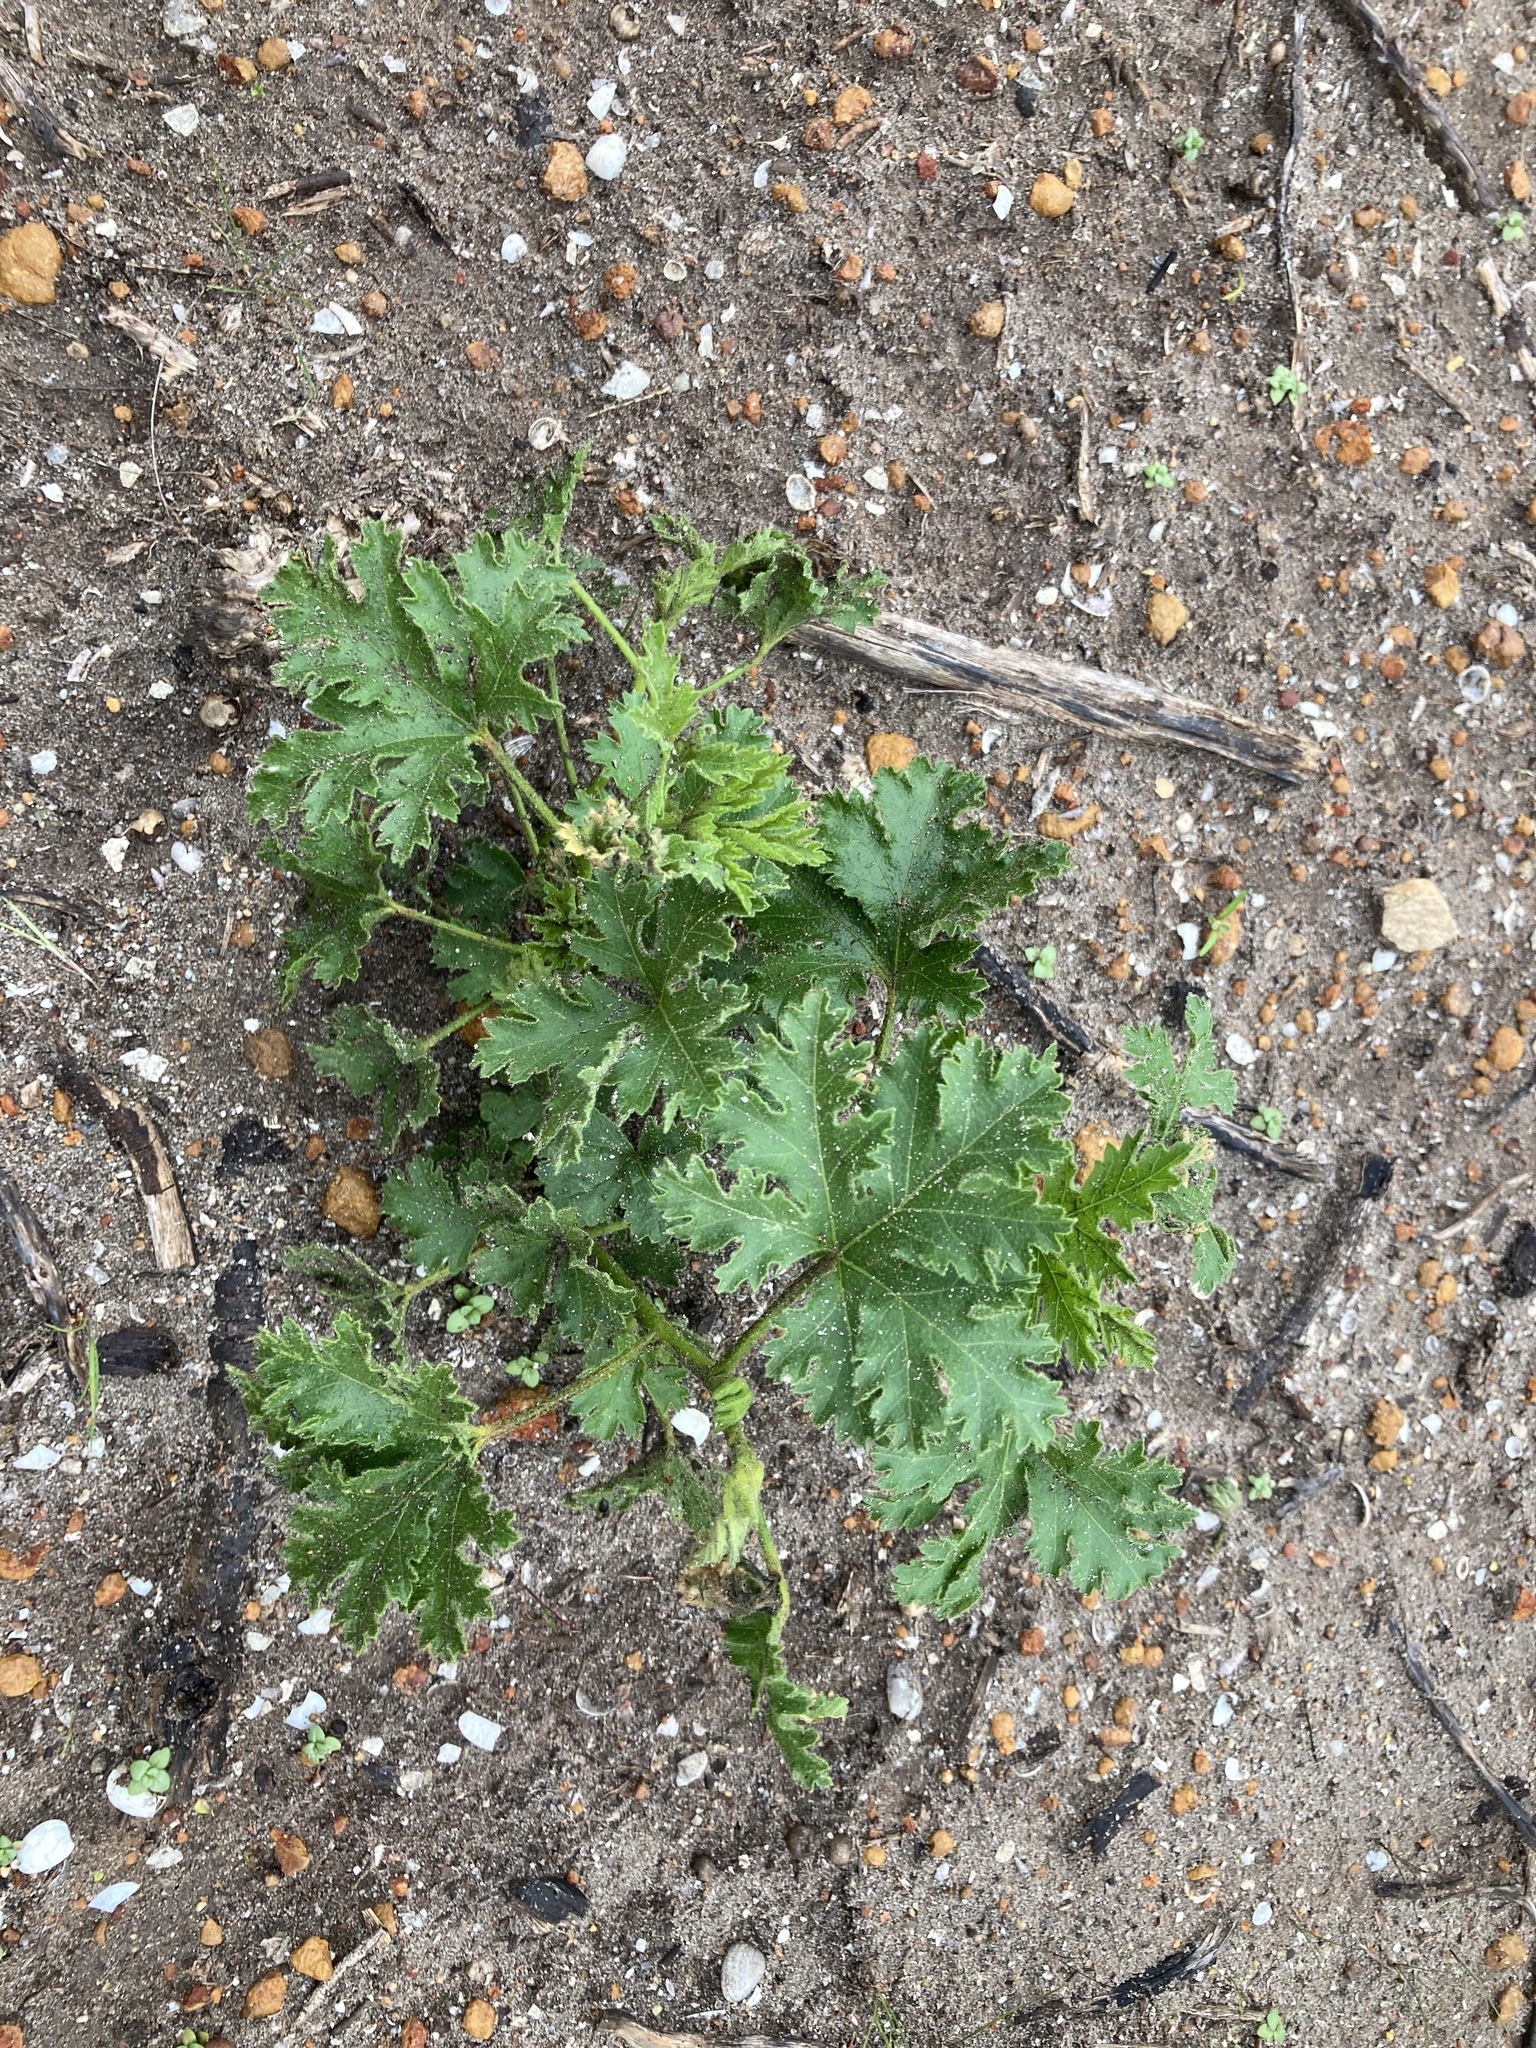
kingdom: Plantae
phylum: Tracheophyta
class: Magnoliopsida
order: Malvales
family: Malvaceae
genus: Hibiscus
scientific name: Hibiscus huegelii
